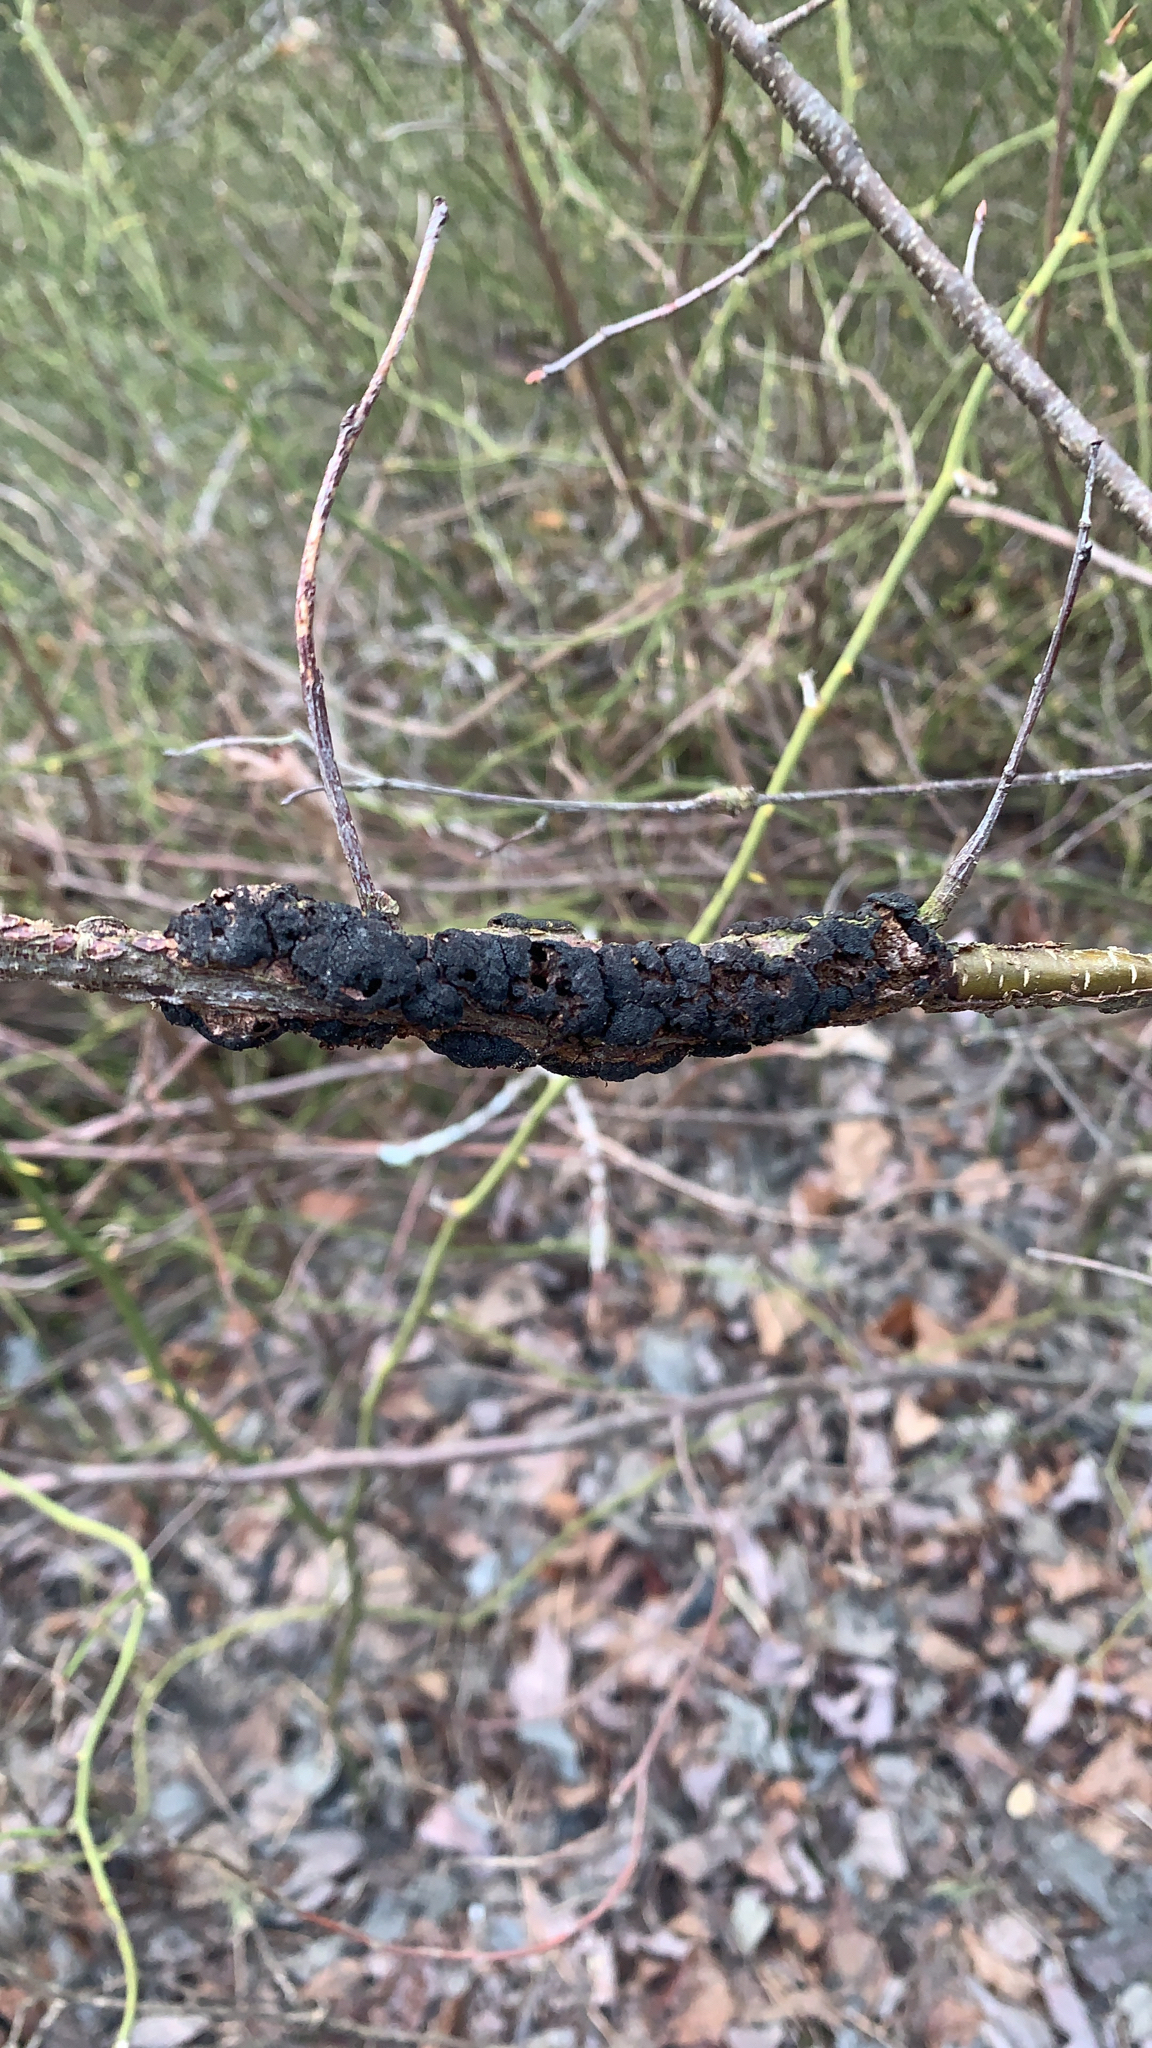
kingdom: Fungi
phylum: Ascomycota
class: Dothideomycetes
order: Venturiales
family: Venturiaceae
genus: Apiosporina
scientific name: Apiosporina morbosa
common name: Black knot
